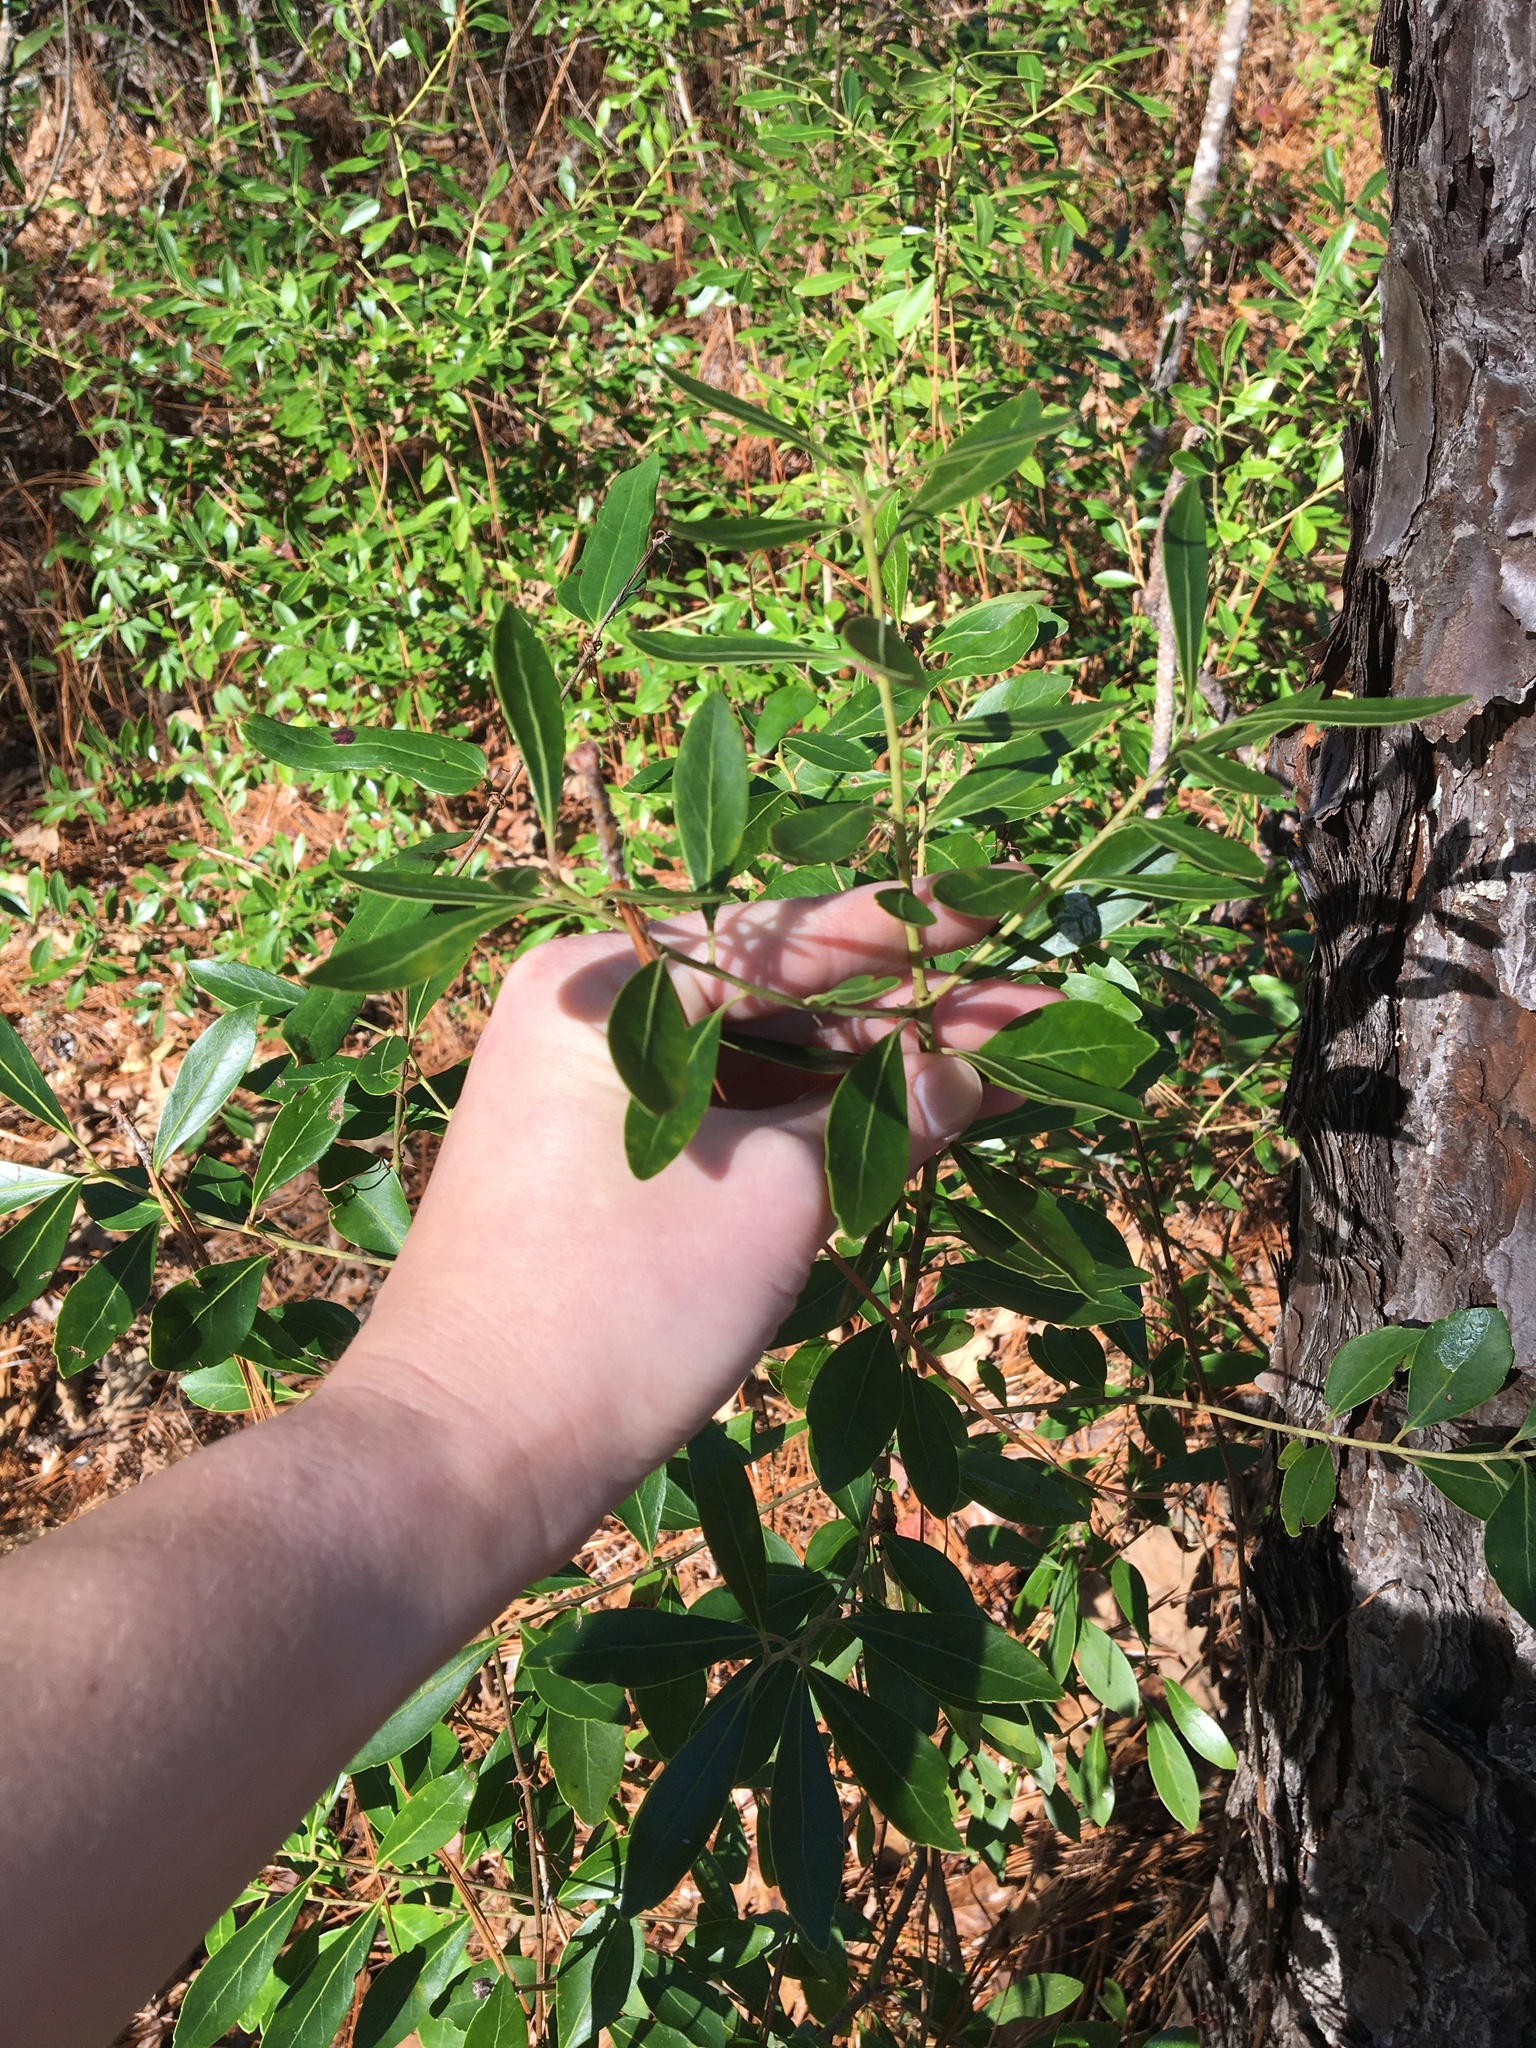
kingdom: Plantae
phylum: Tracheophyta
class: Magnoliopsida
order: Aquifoliales
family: Aquifoliaceae
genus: Ilex
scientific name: Ilex glabra
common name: Bitter gallberry
